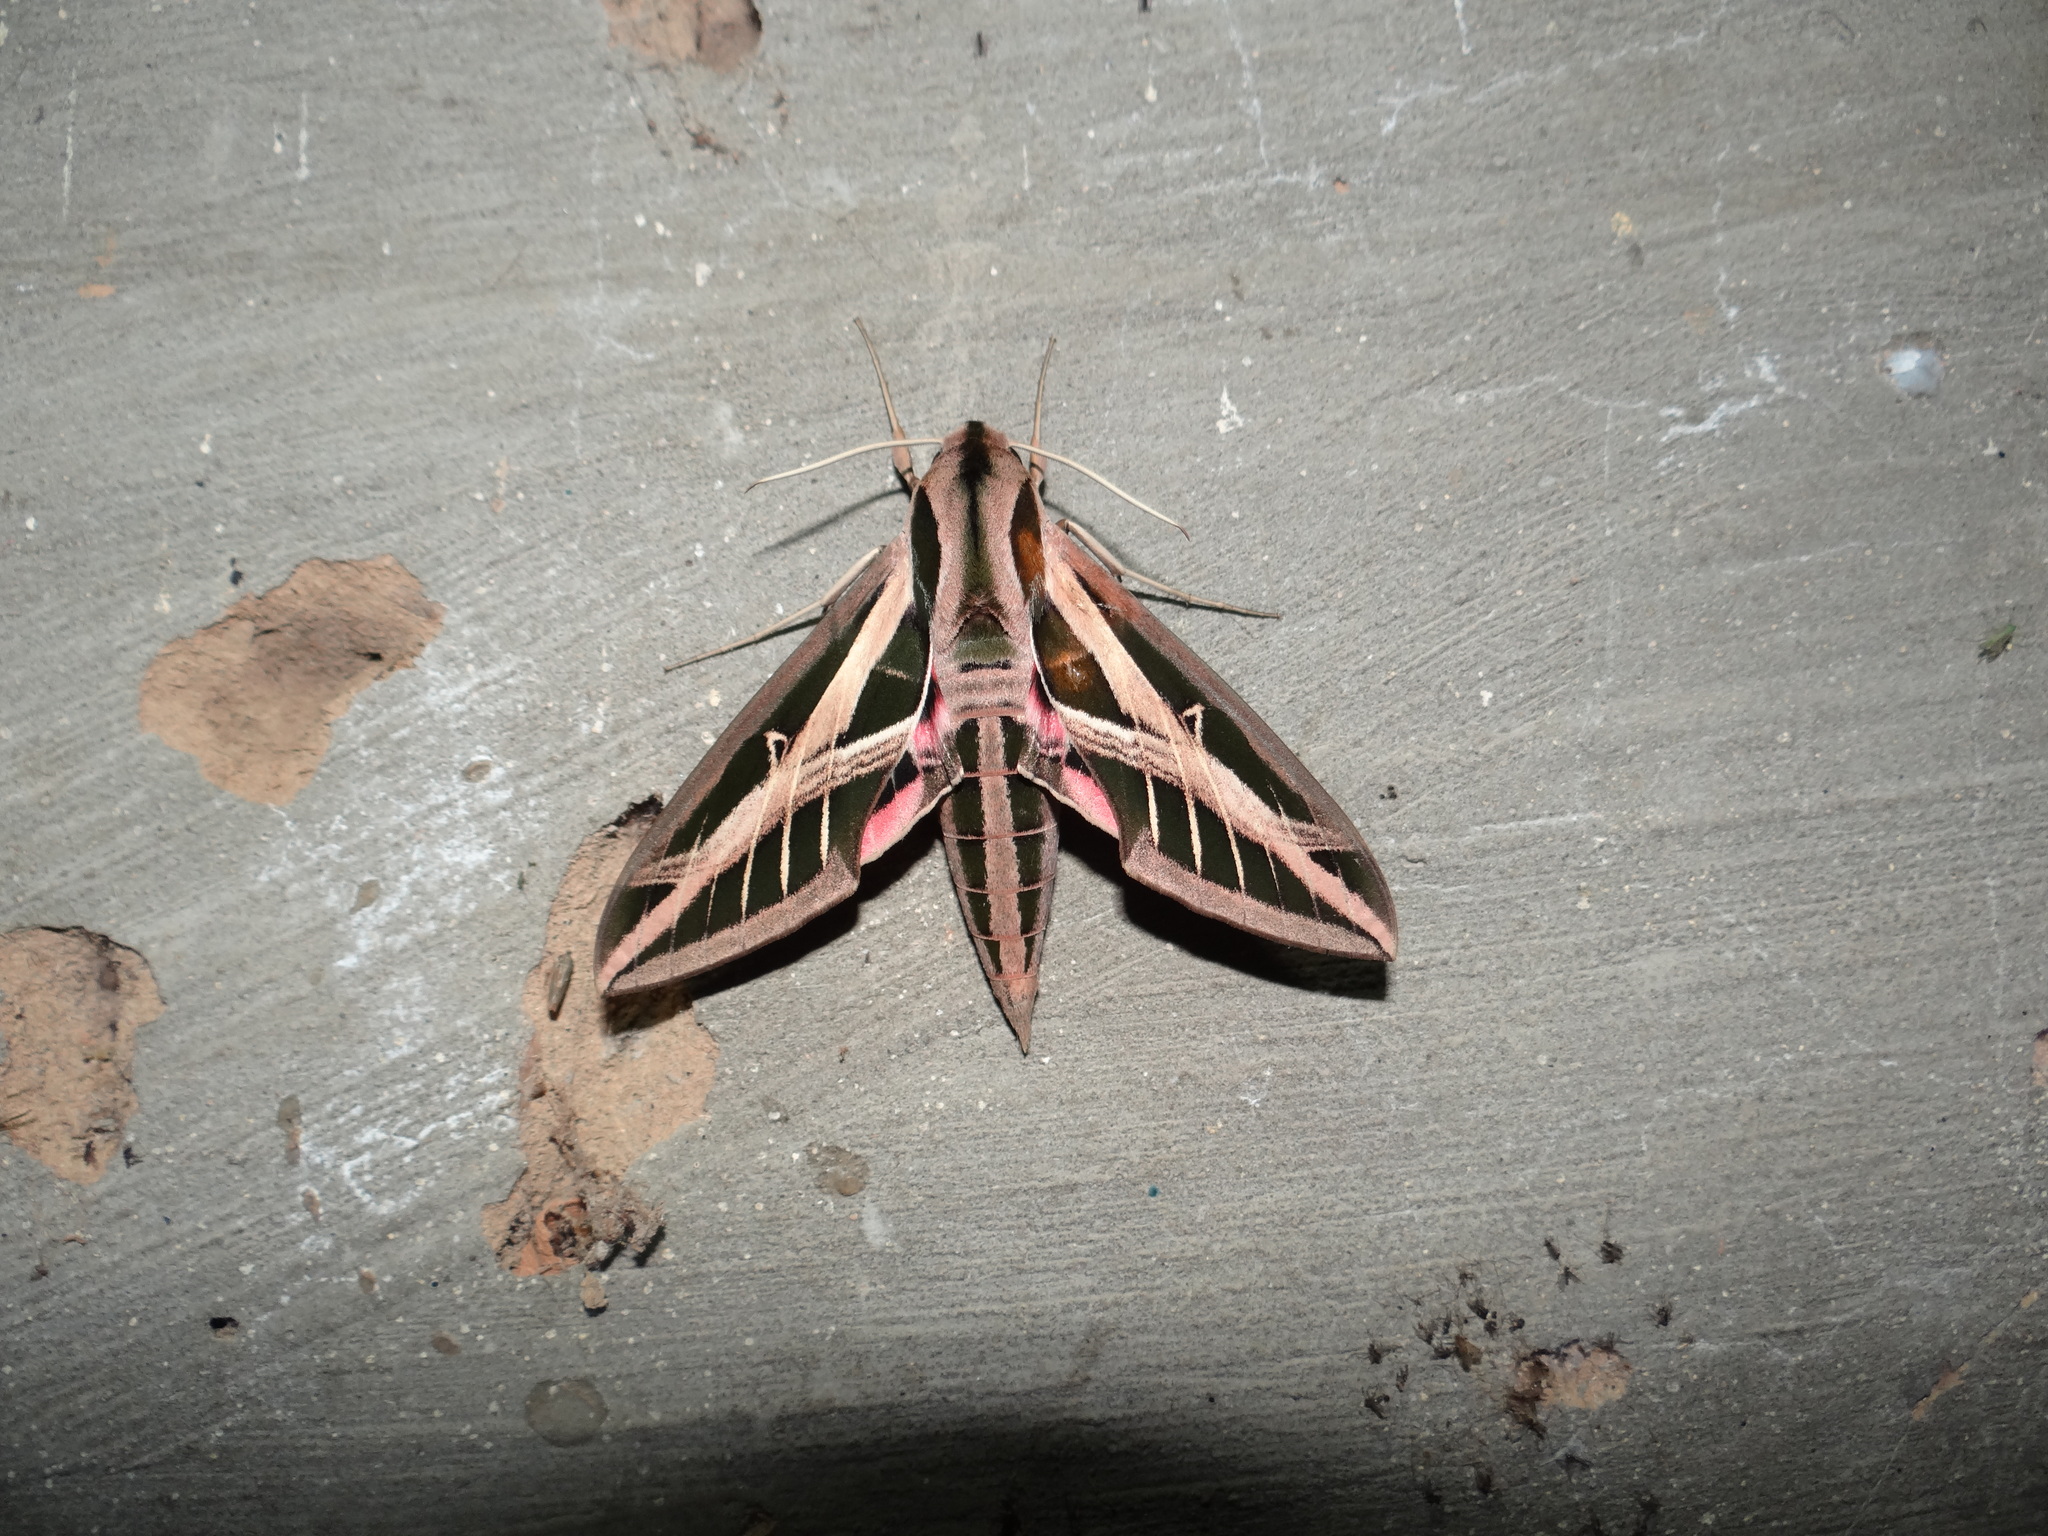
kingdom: Animalia
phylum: Arthropoda
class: Insecta
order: Lepidoptera
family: Sphingidae
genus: Eumorpha
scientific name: Eumorpha fasciatus
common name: Banded sphinx
